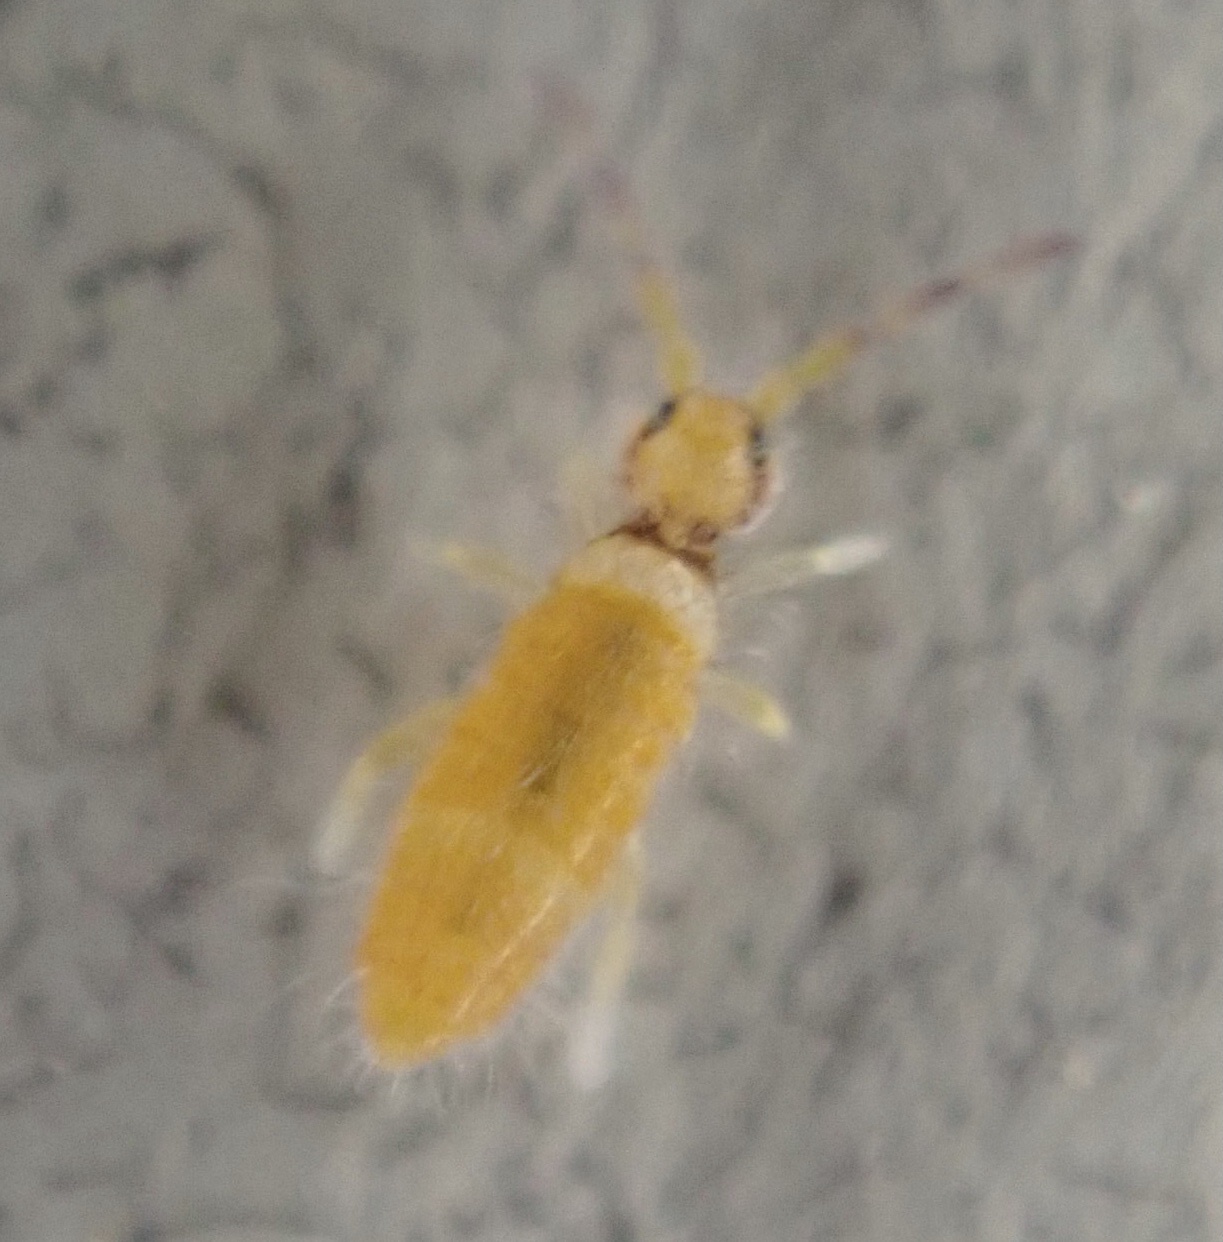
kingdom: Animalia
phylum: Arthropoda
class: Collembola
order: Entomobryomorpha
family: Entomobryidae
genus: Entomobrya
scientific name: Entomobrya atrocincta
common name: Springtail
